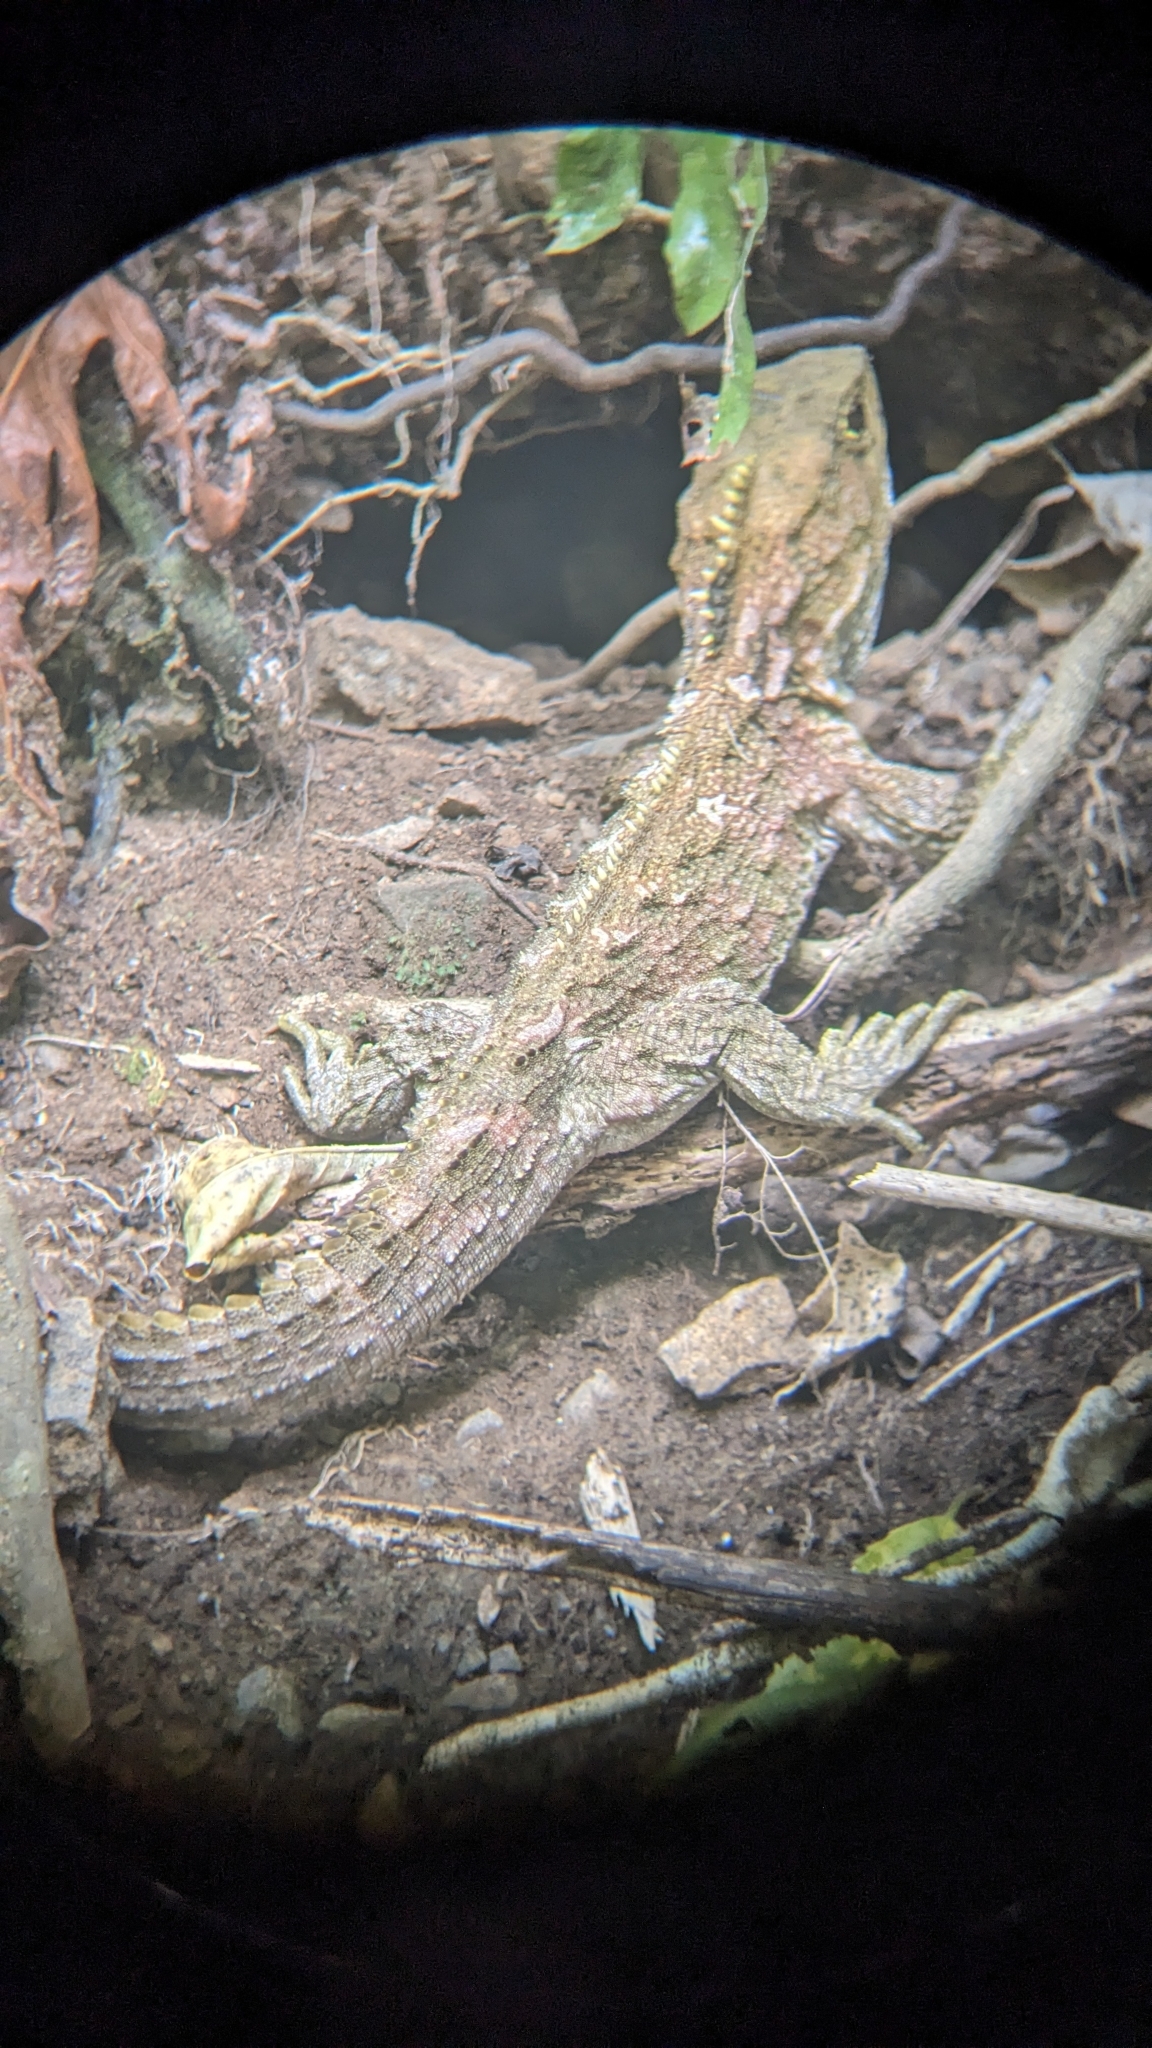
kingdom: Animalia
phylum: Chordata
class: Sphenodontia
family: Sphenodontidae
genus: Sphenodon
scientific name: Sphenodon punctatus
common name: Tuatara
